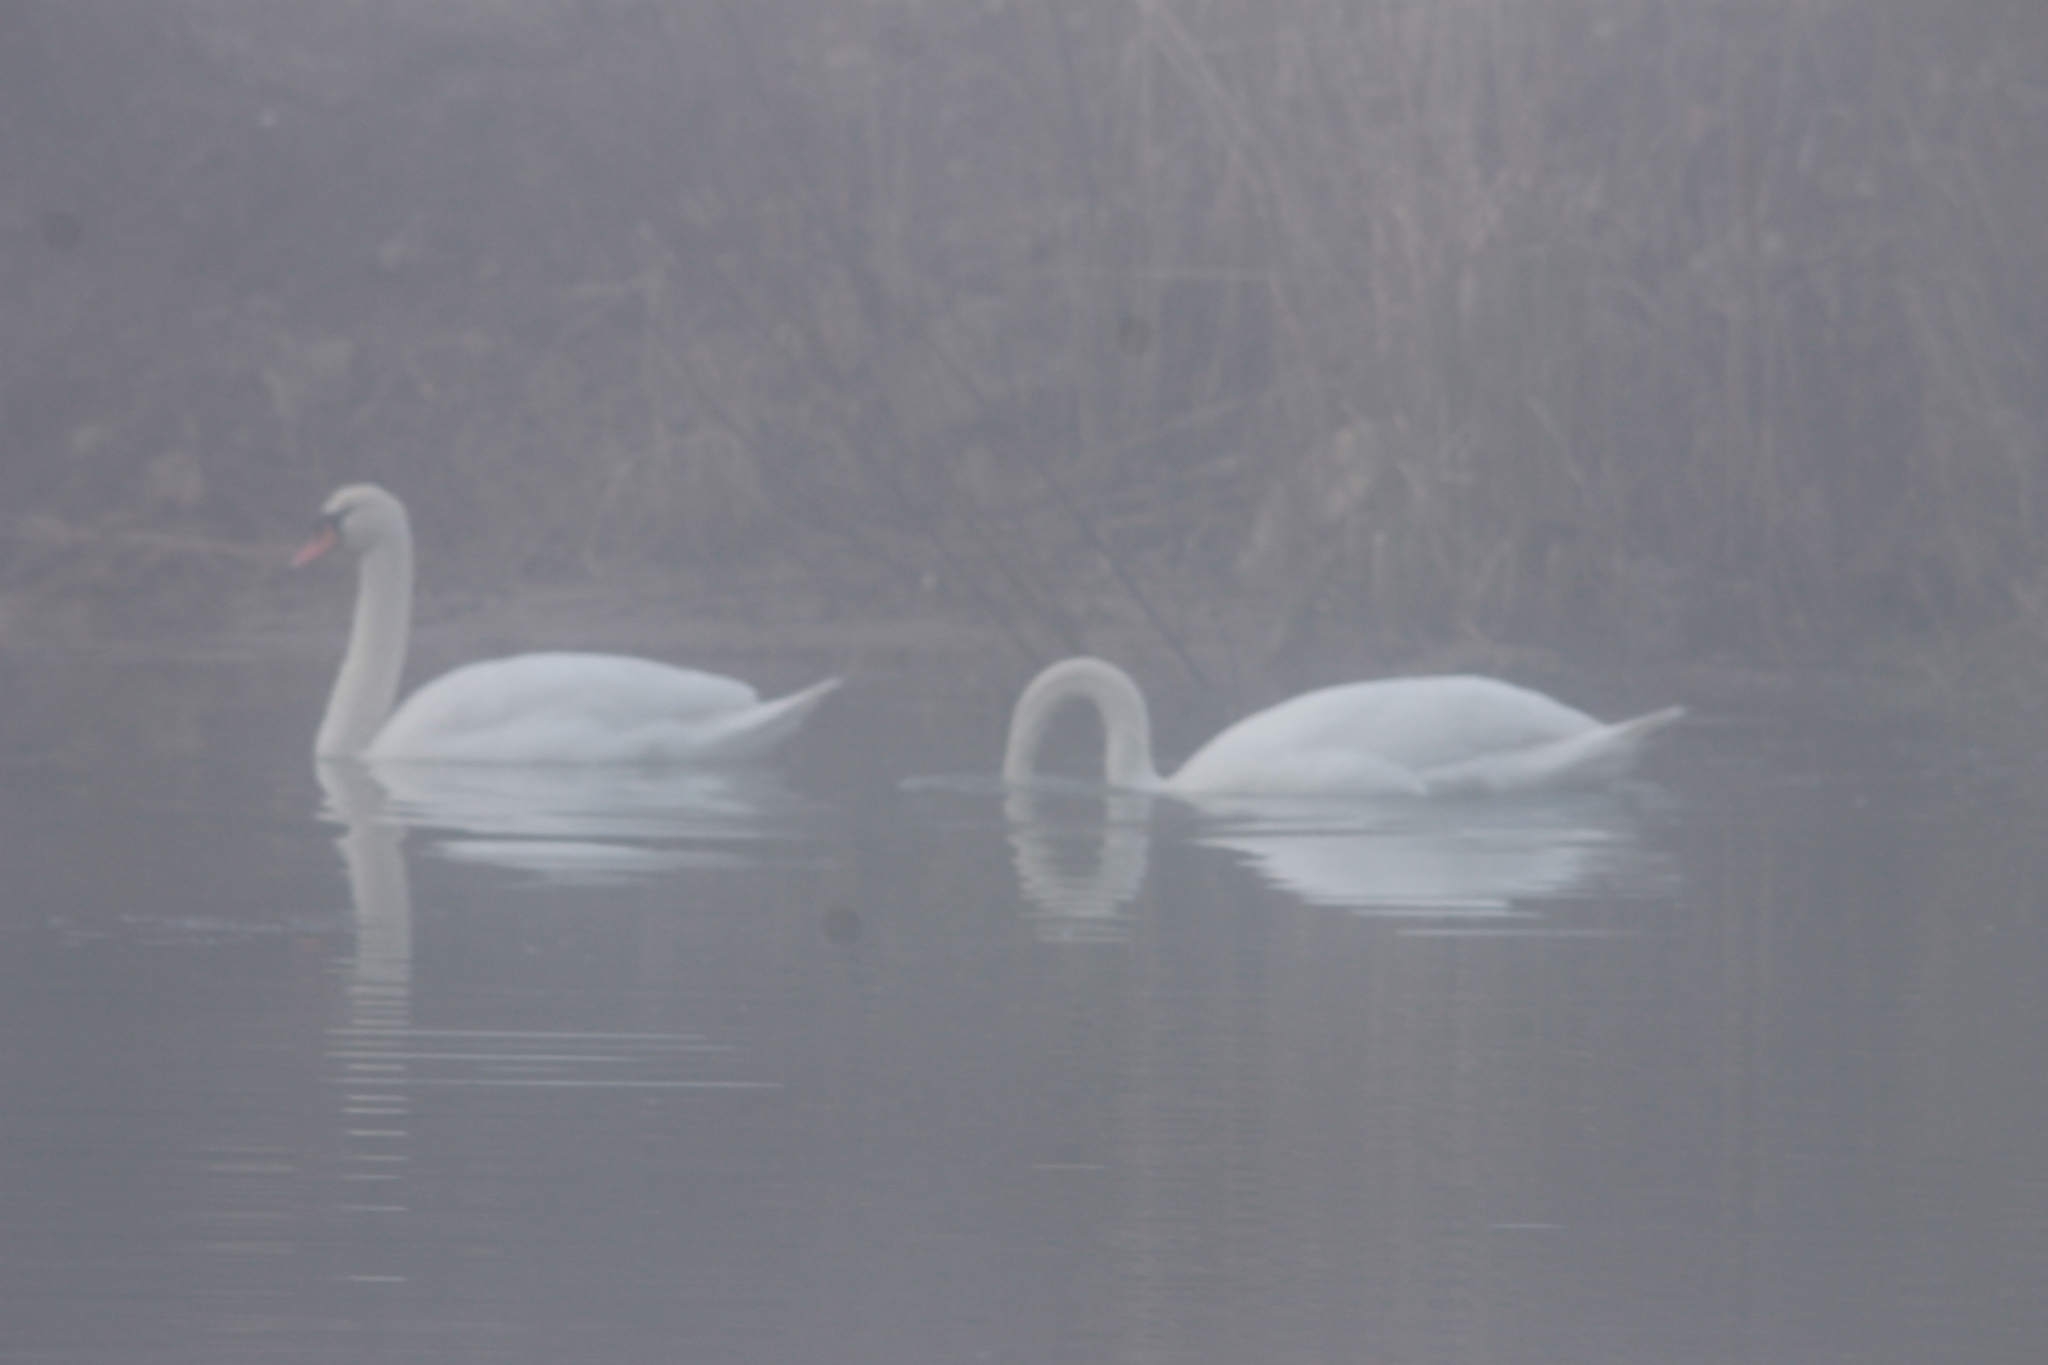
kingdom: Animalia
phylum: Chordata
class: Aves
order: Anseriformes
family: Anatidae
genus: Cygnus
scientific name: Cygnus olor
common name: Mute swan
